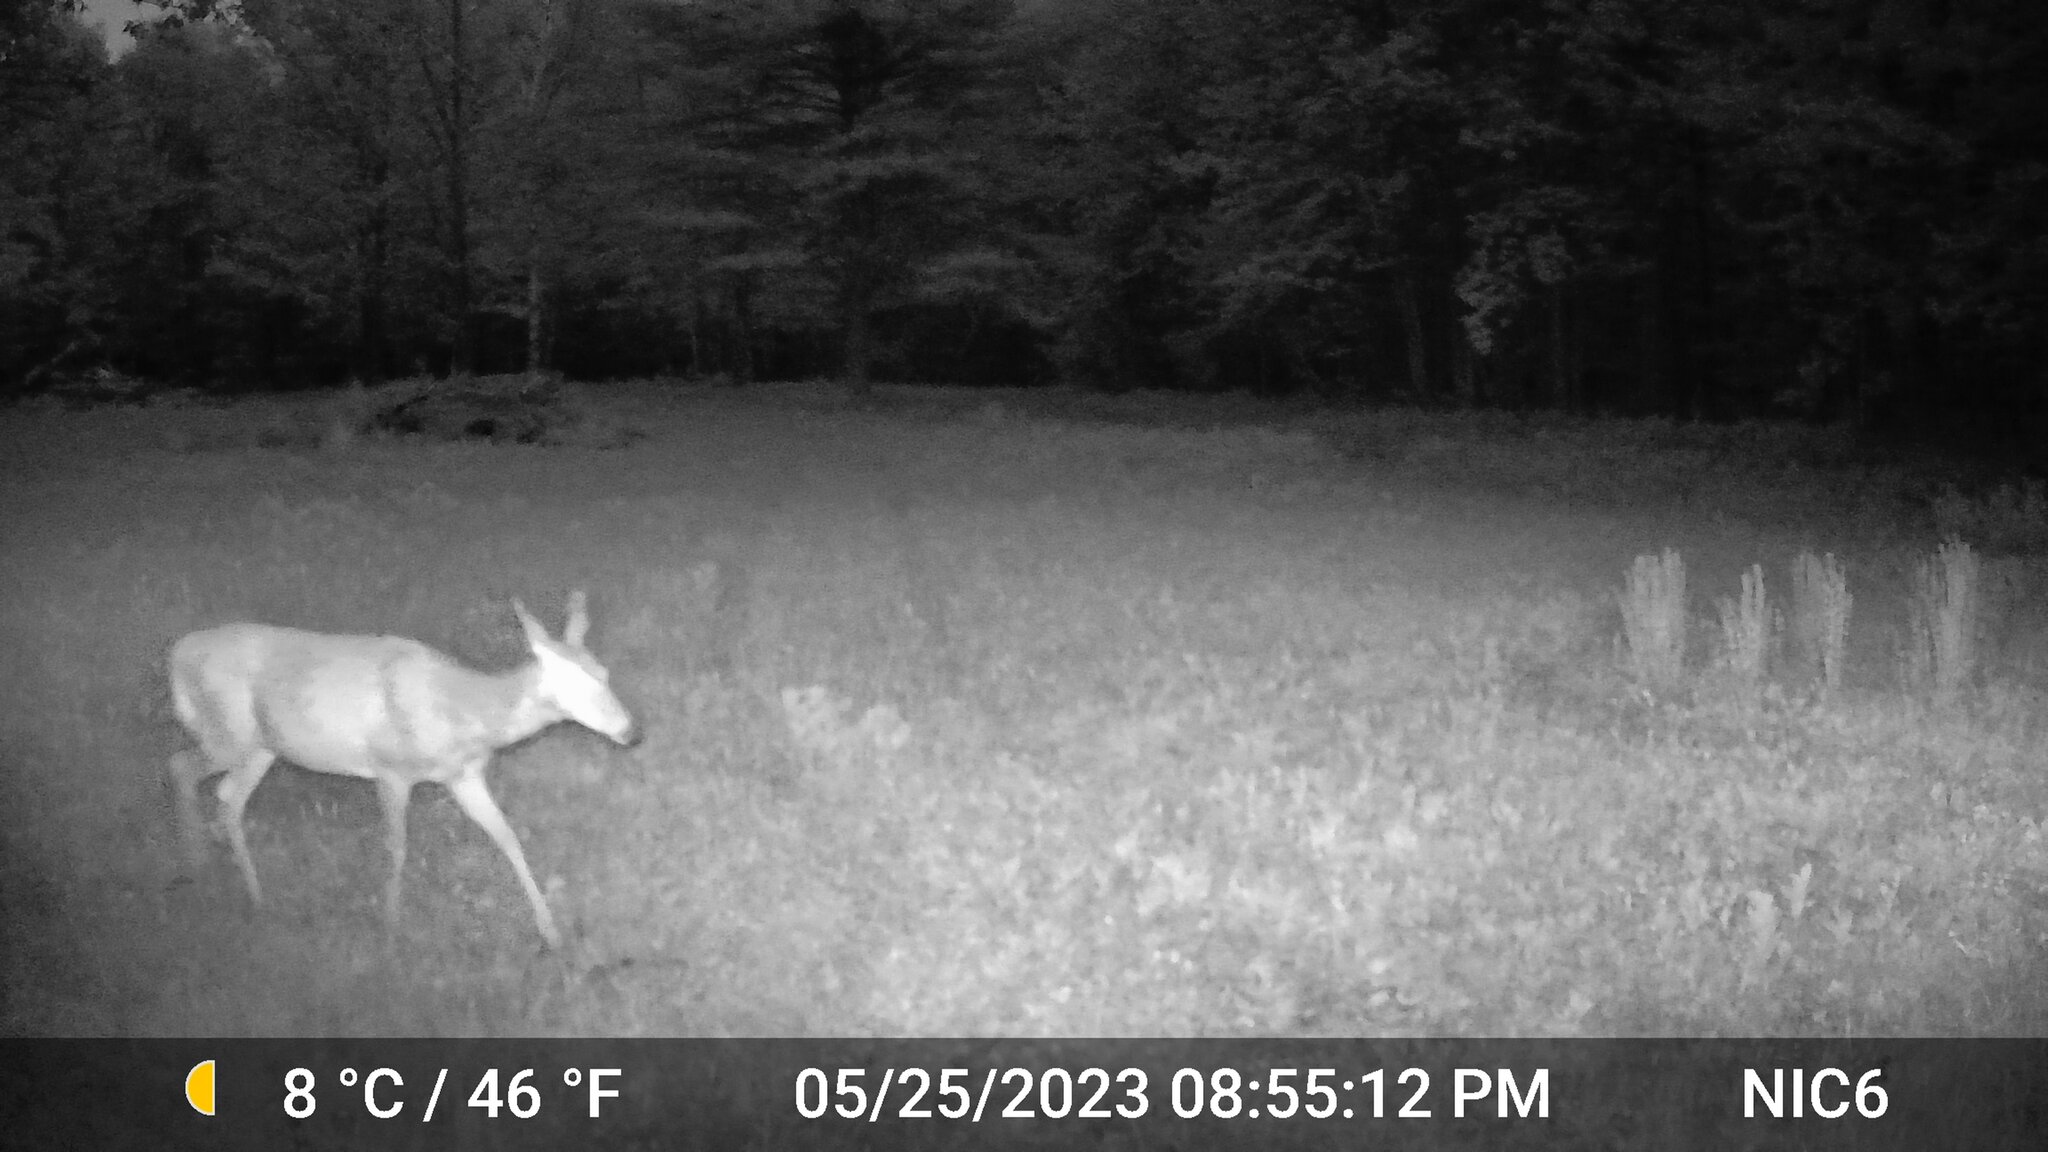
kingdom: Animalia
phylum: Chordata
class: Mammalia
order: Artiodactyla
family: Cervidae
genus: Odocoileus
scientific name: Odocoileus virginianus
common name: White-tailed deer
